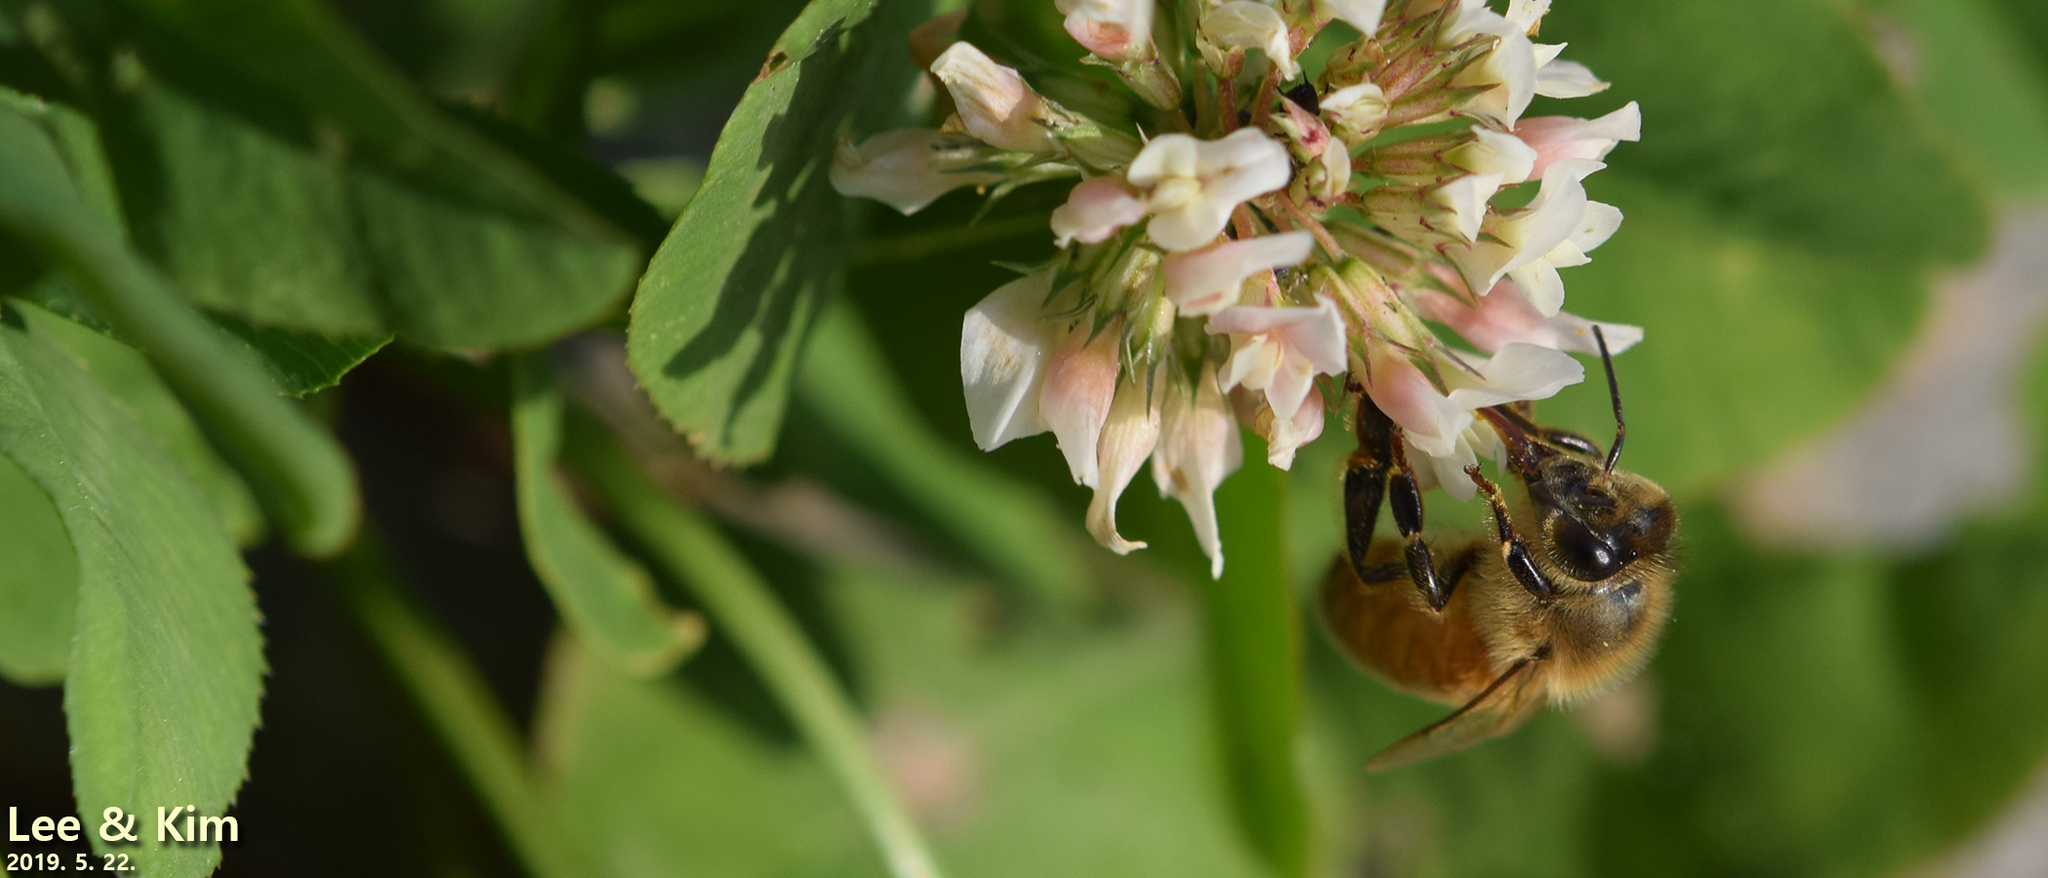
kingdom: Animalia
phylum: Arthropoda
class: Insecta
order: Hymenoptera
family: Apidae
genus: Apis
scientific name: Apis mellifera
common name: Honey bee
